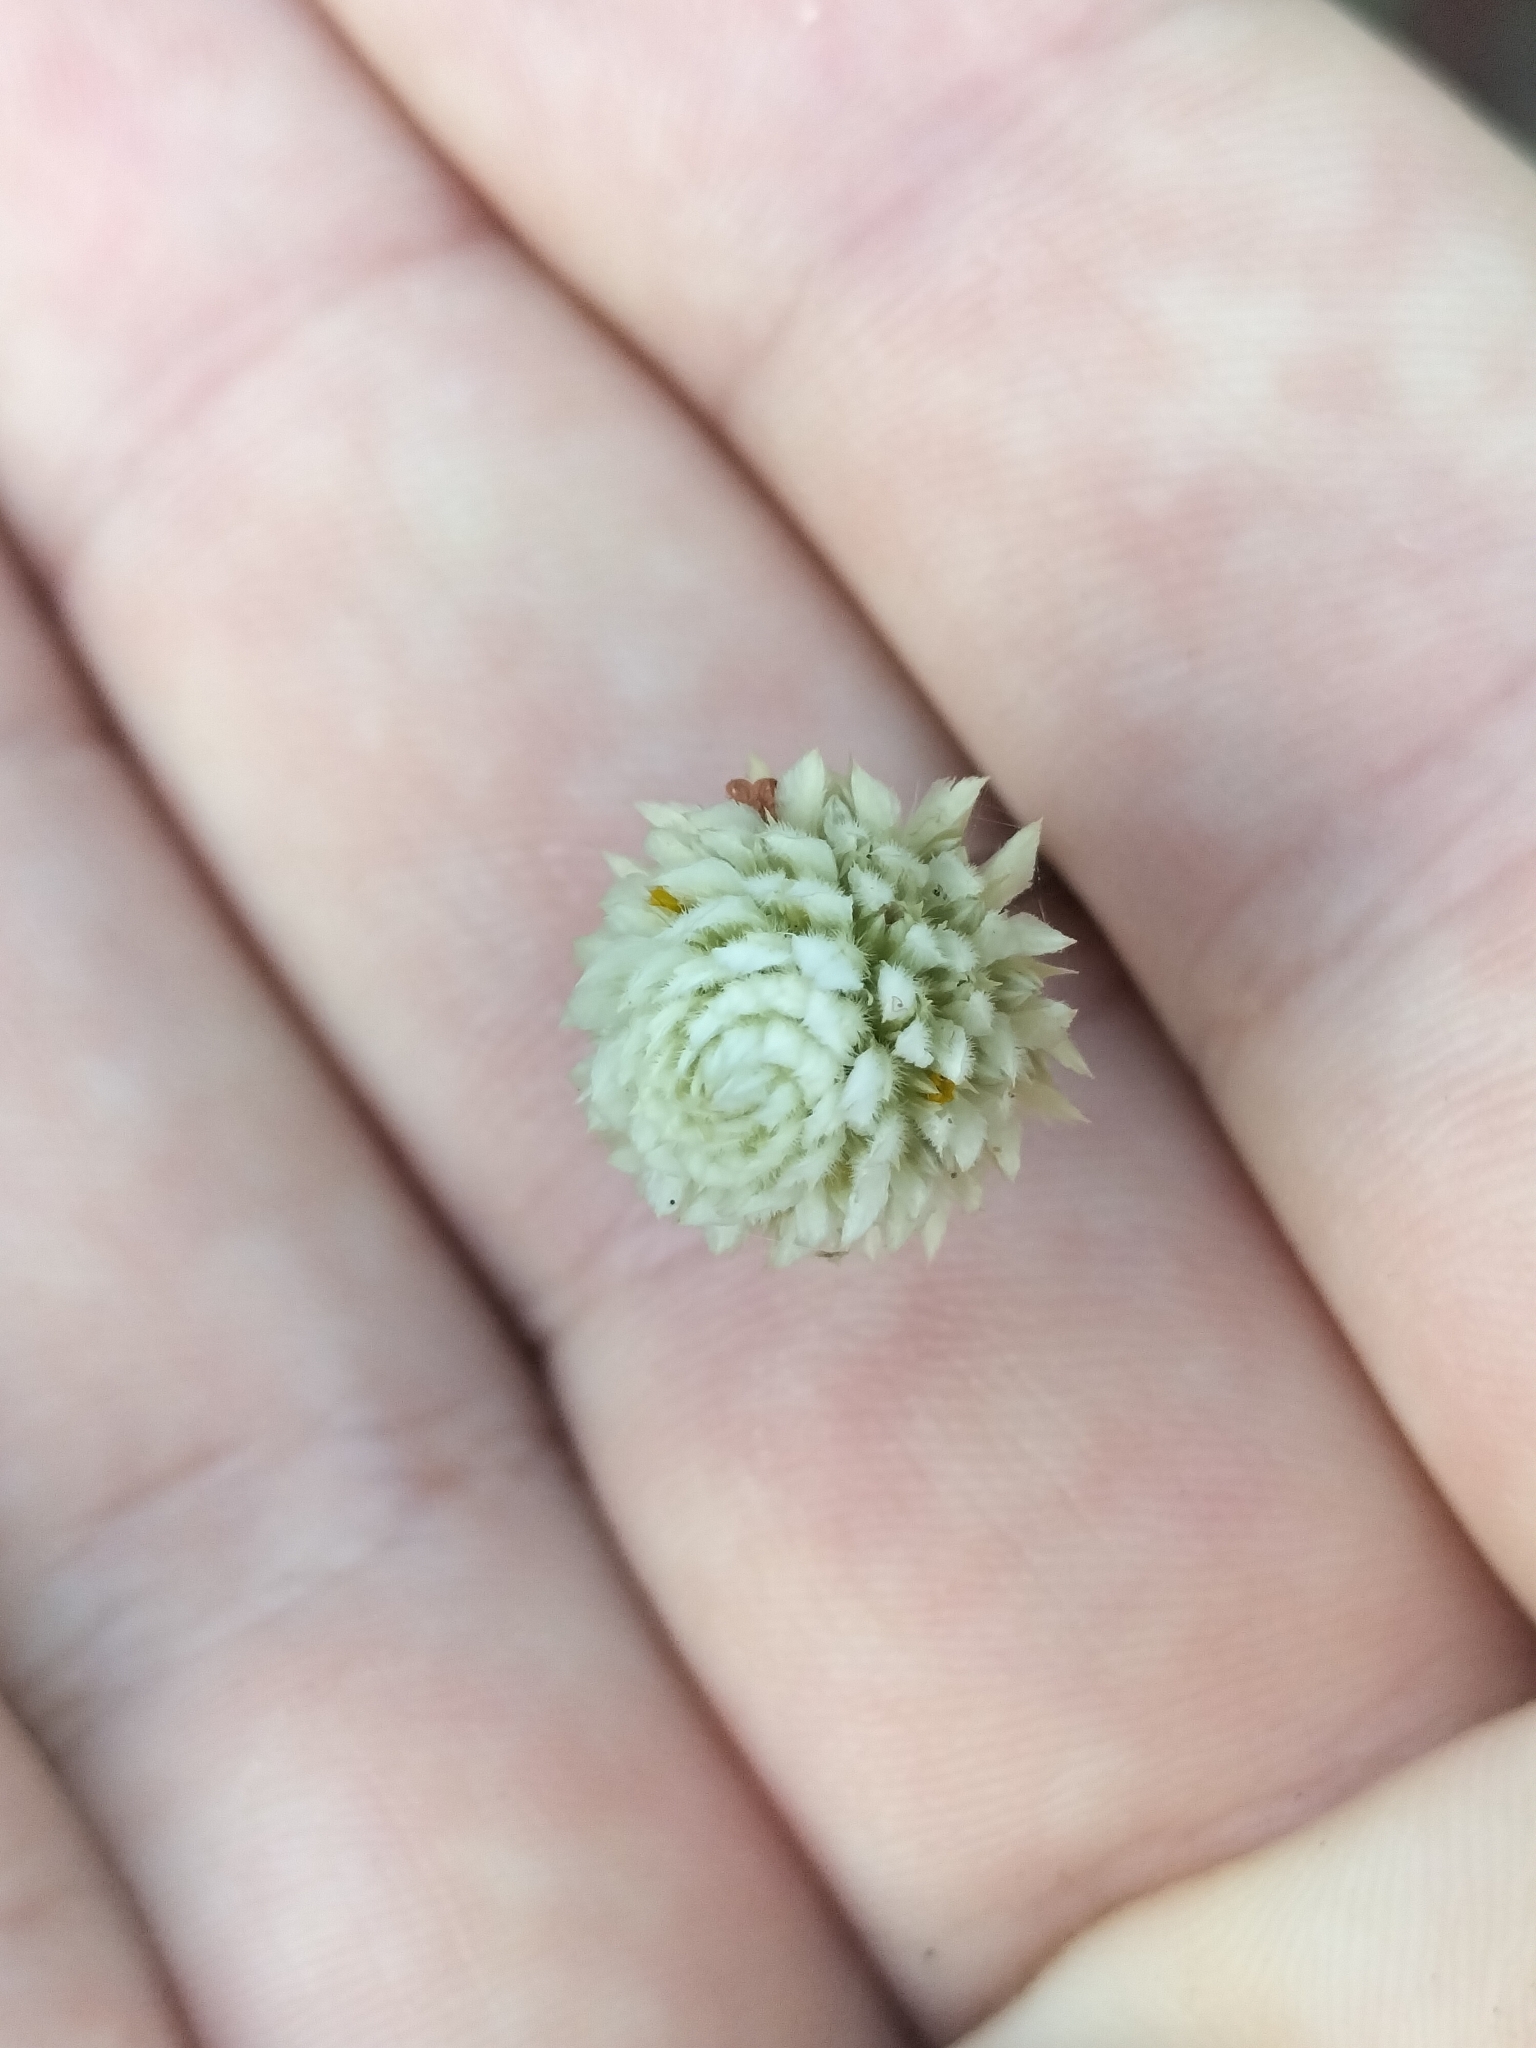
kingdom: Plantae
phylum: Tracheophyta
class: Magnoliopsida
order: Caryophyllales
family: Amaranthaceae
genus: Alternanthera
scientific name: Alternanthera brasiliana
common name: Brazilian joyweed
